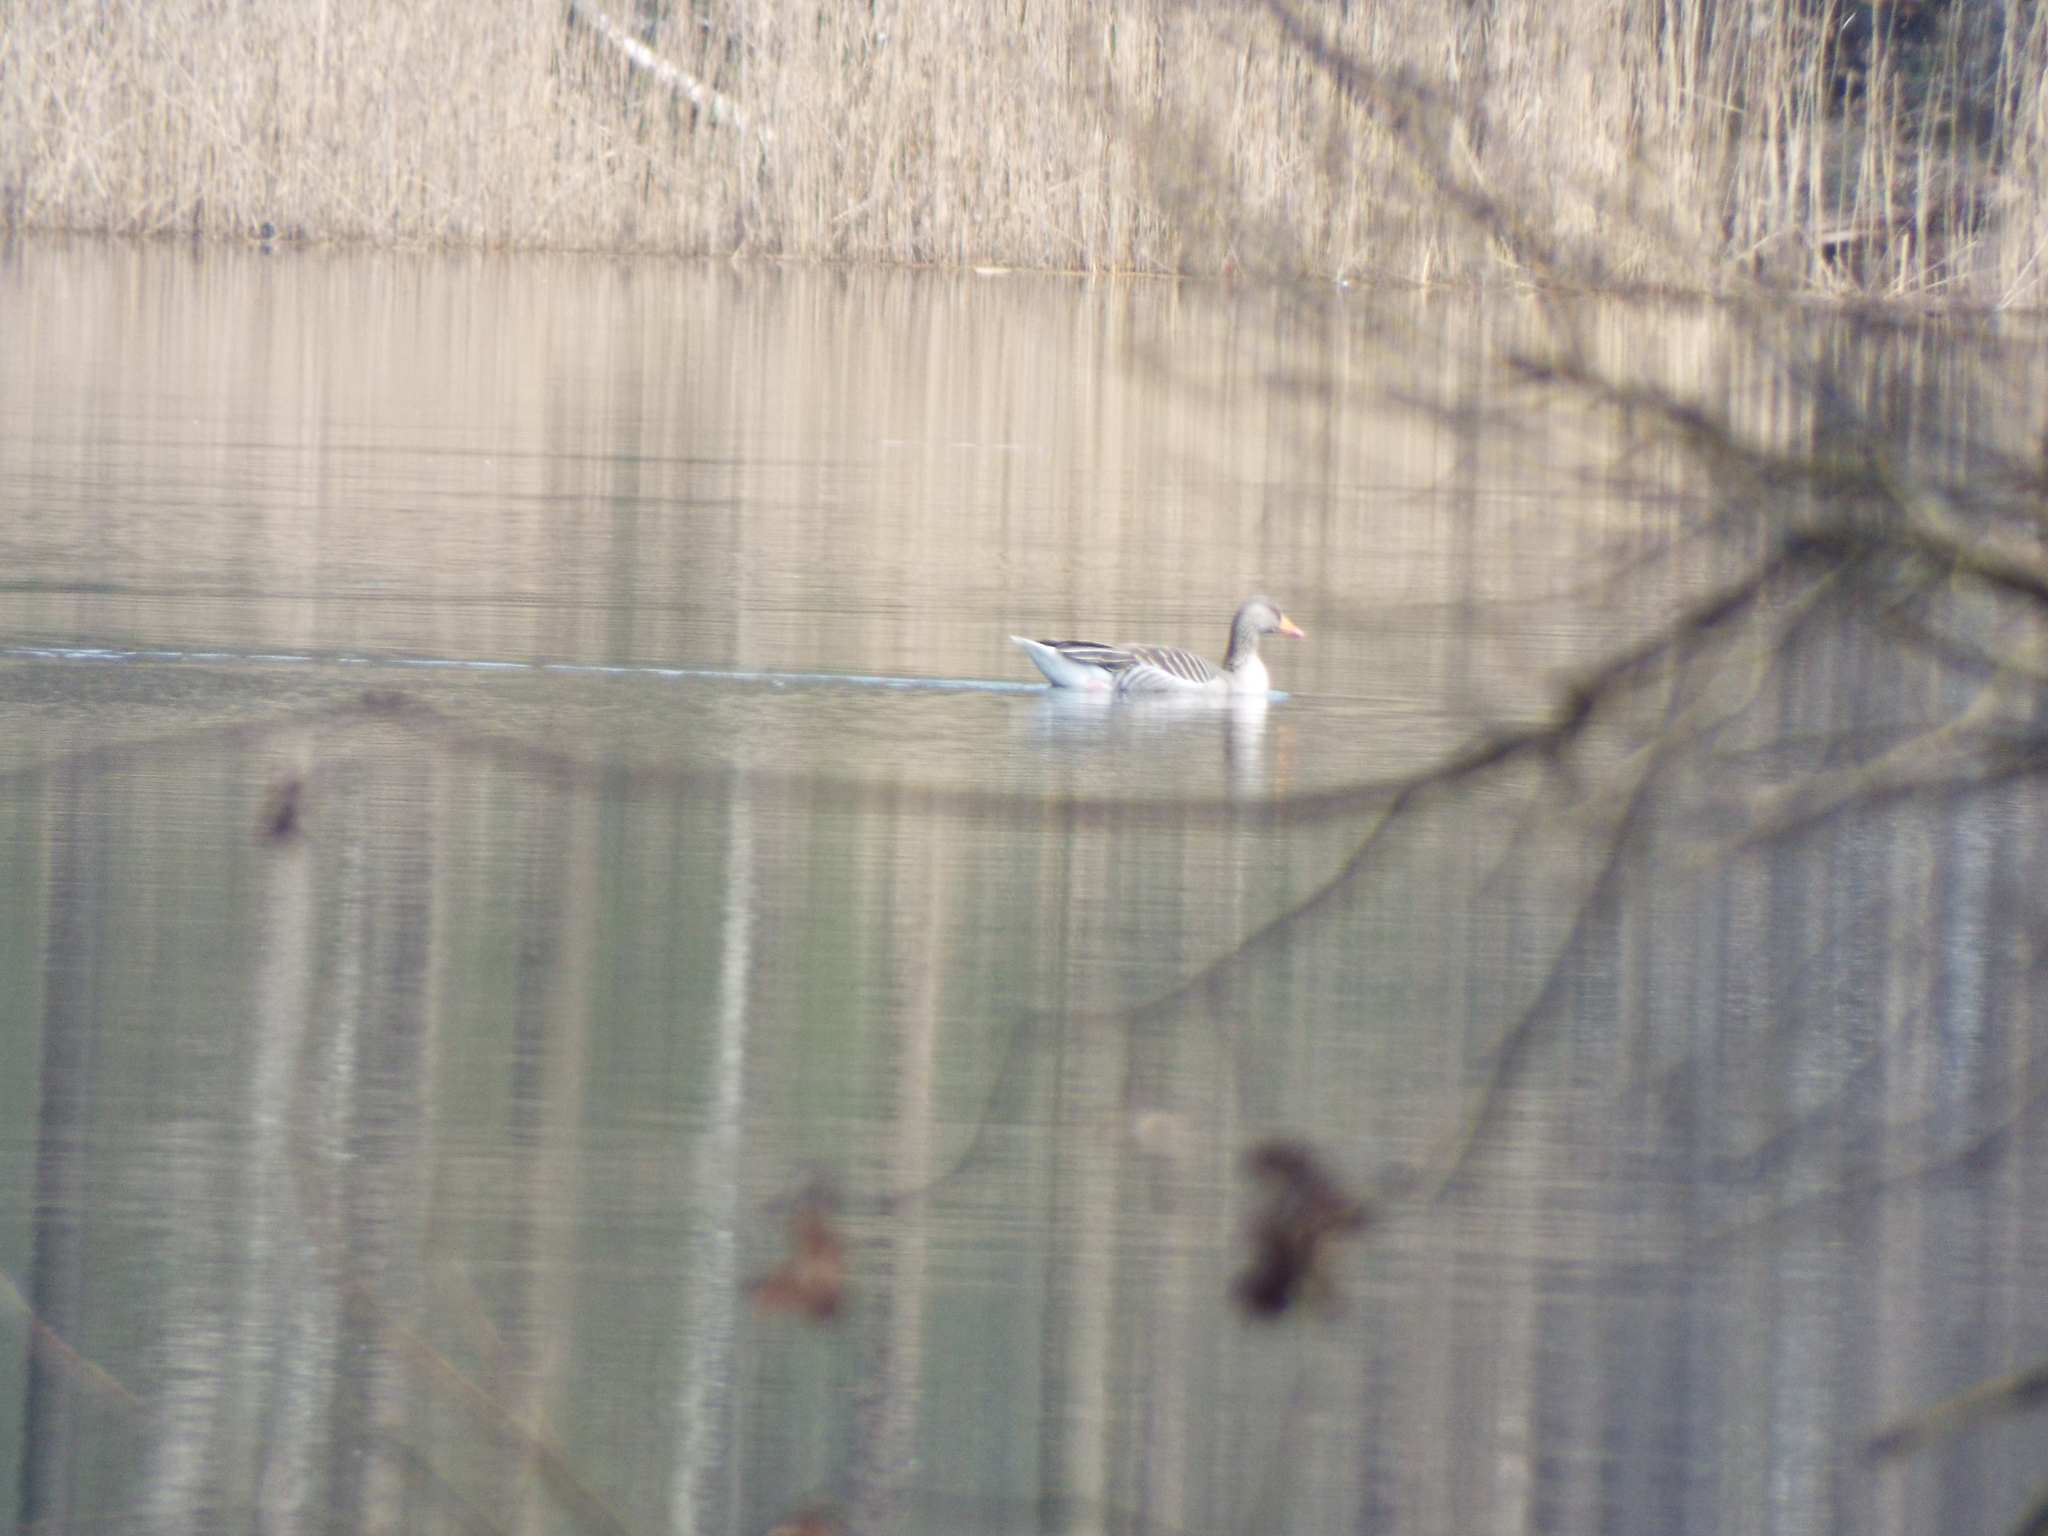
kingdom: Animalia
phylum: Chordata
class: Aves
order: Anseriformes
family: Anatidae
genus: Anser
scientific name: Anser anser
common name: Greylag goose
